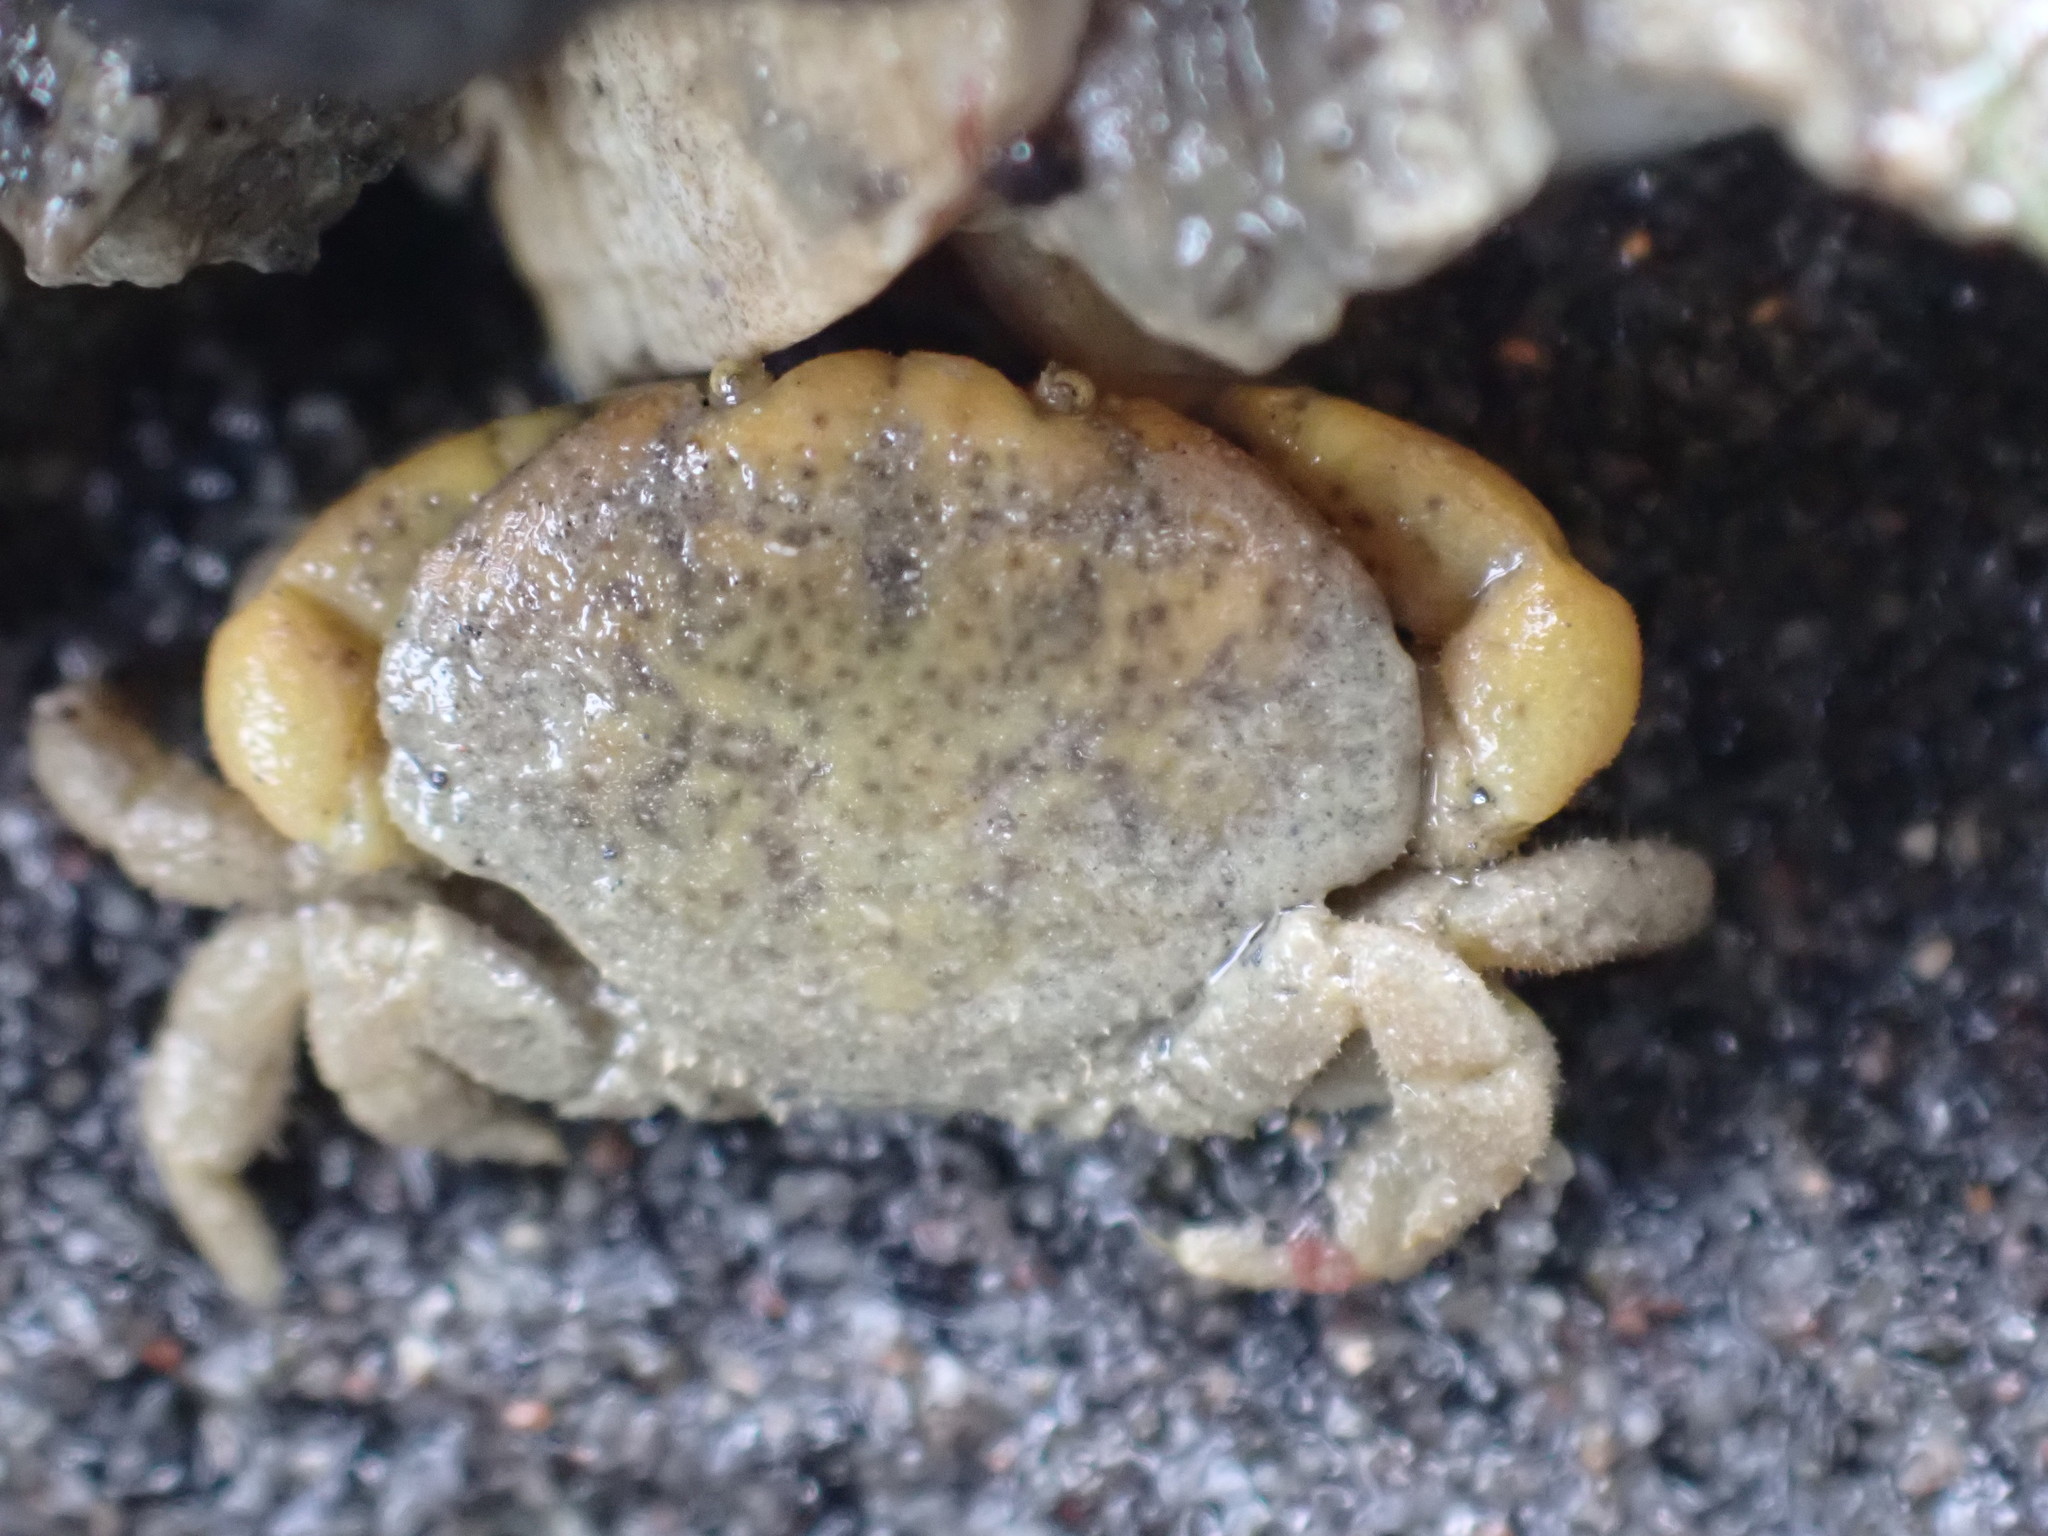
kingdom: Animalia
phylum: Arthropoda
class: Malacostraca
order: Decapoda
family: Heteroziidae
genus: Heterozius
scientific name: Heterozius rotundifrons
